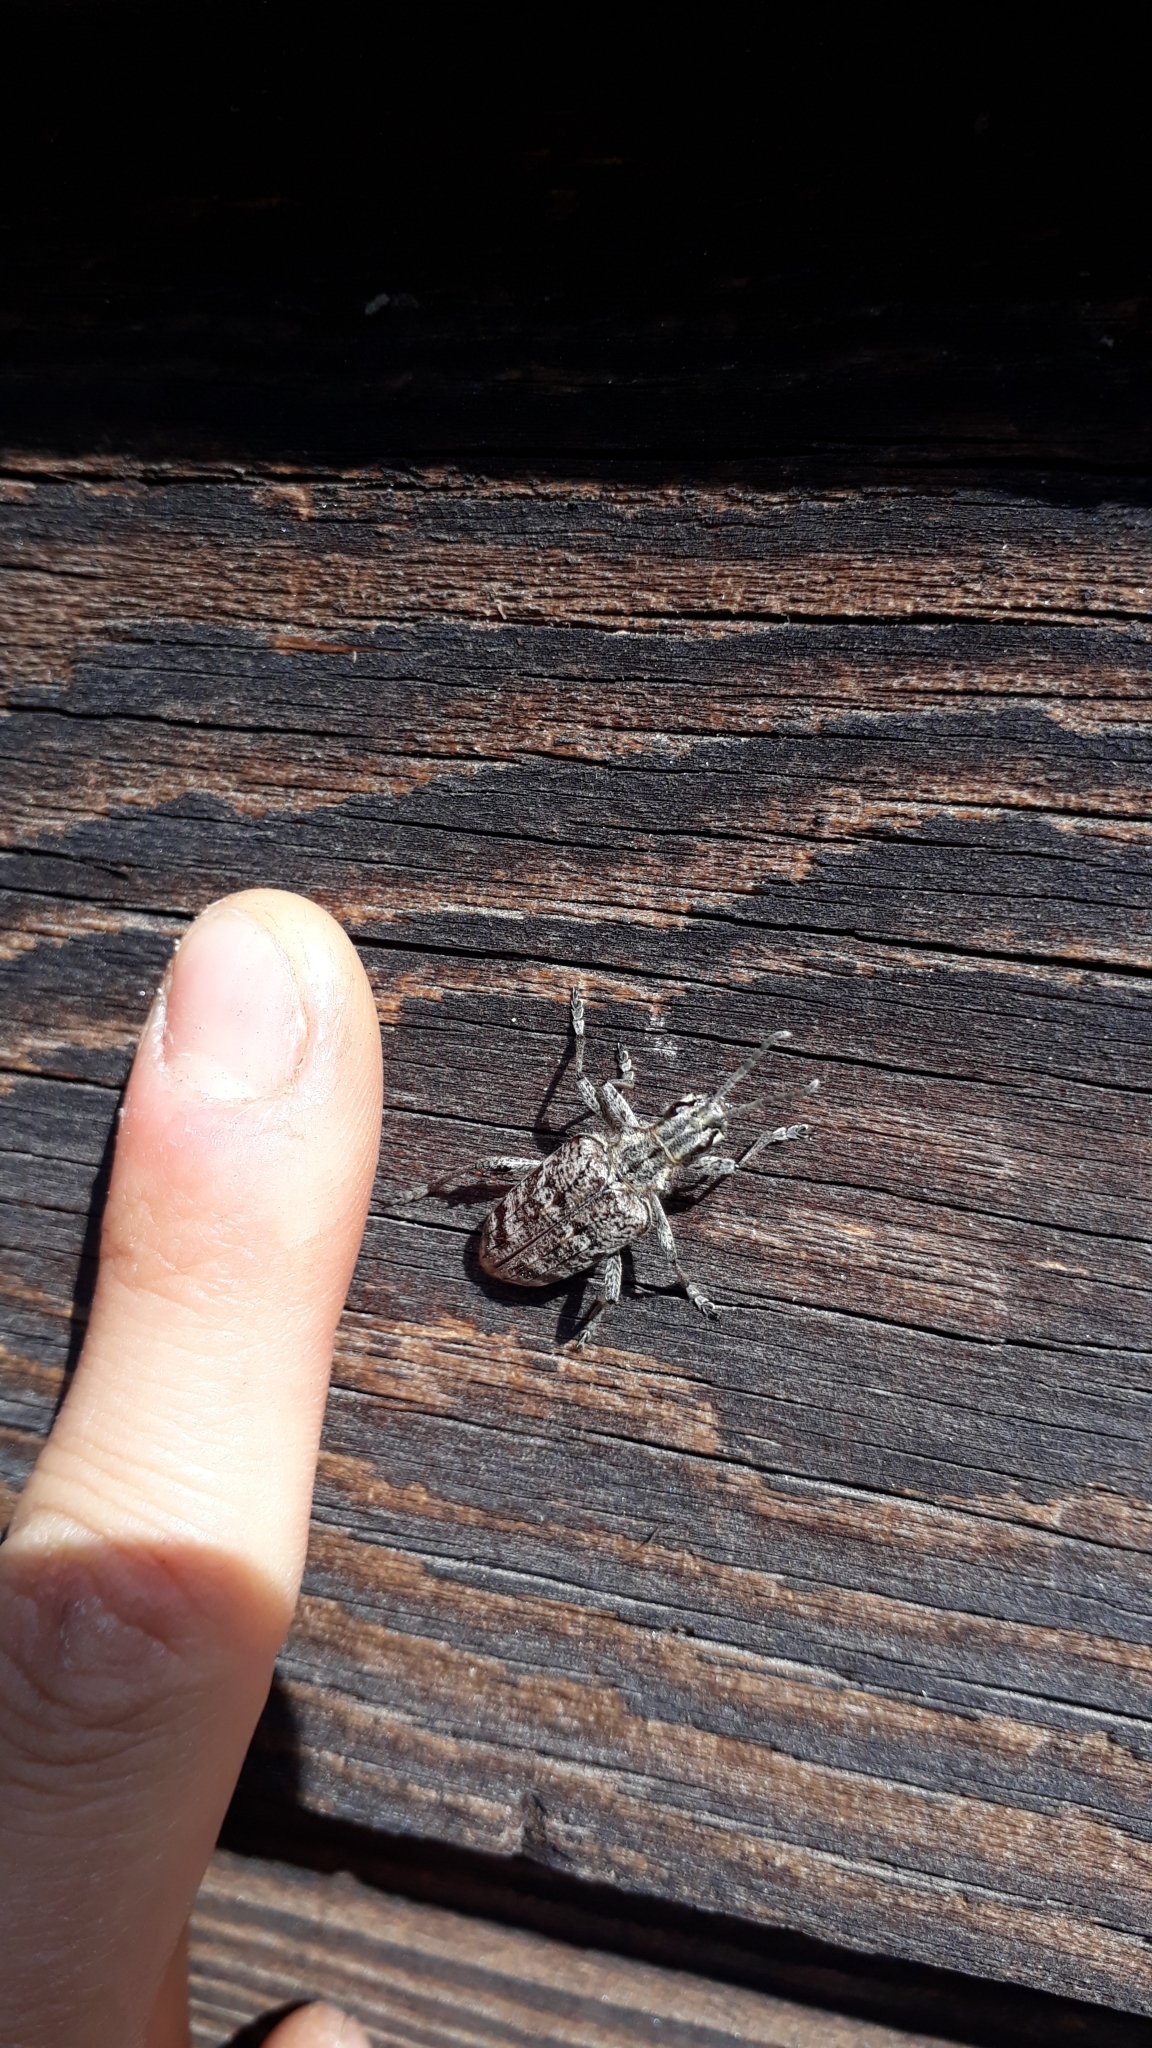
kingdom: Animalia
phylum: Arthropoda
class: Insecta
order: Coleoptera
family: Cerambycidae
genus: Rhagium
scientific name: Rhagium inquisitor
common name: Ribbed pine borer
